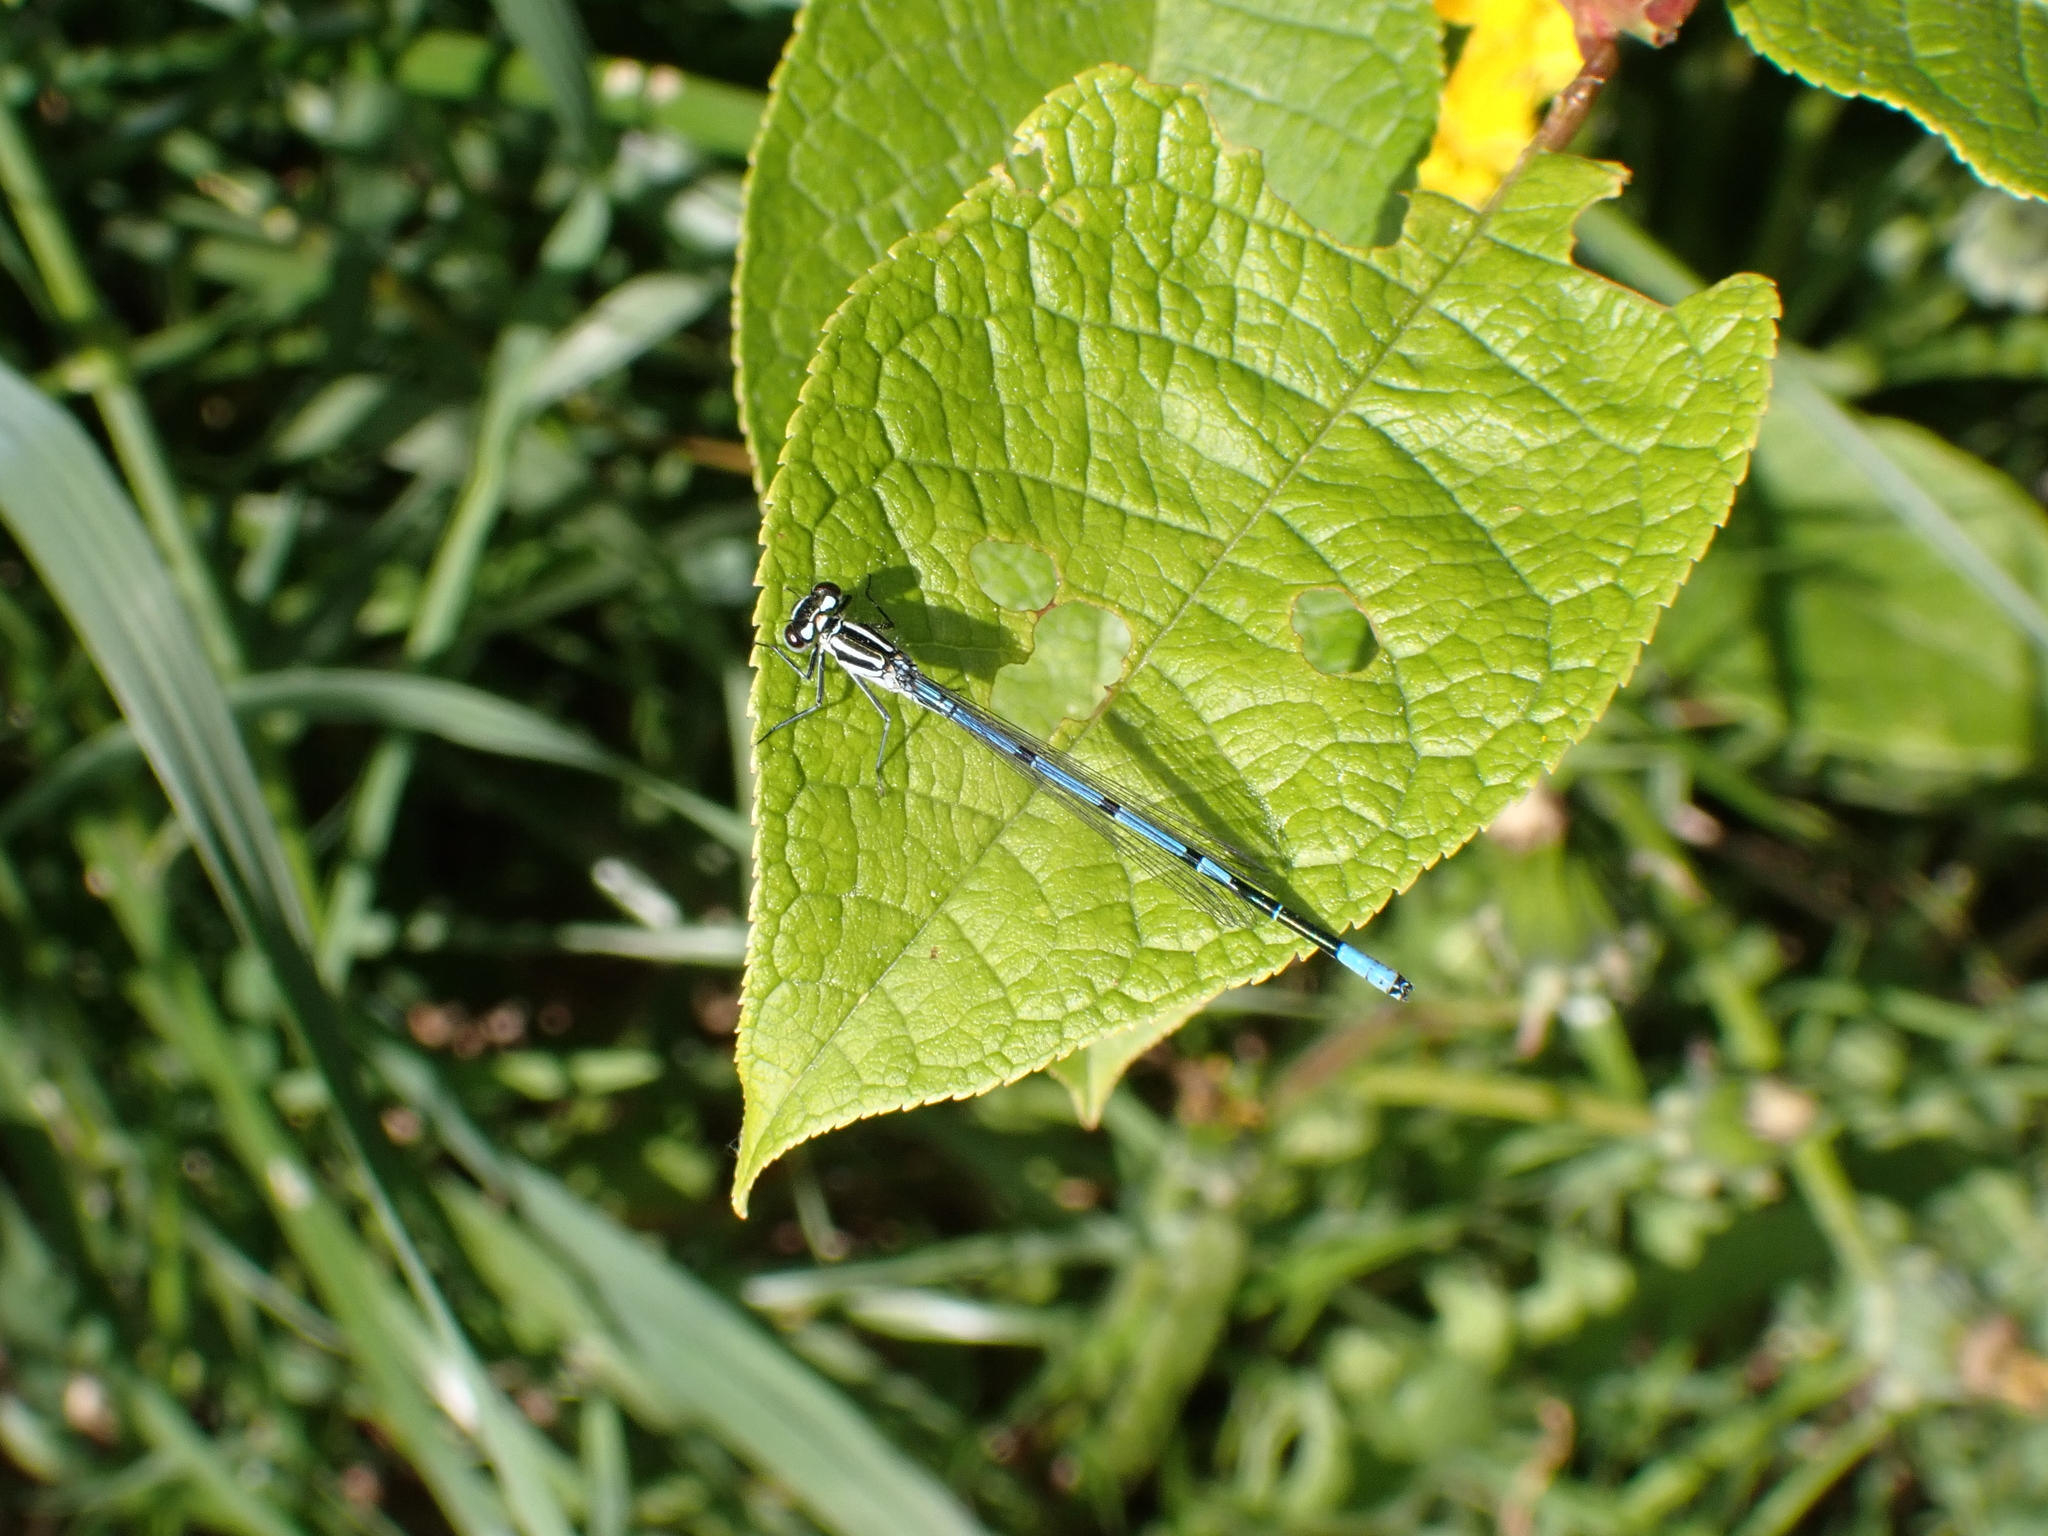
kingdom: Animalia
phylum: Arthropoda
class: Insecta
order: Odonata
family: Coenagrionidae
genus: Coenagrion
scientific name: Coenagrion puella
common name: Azure damselfly
